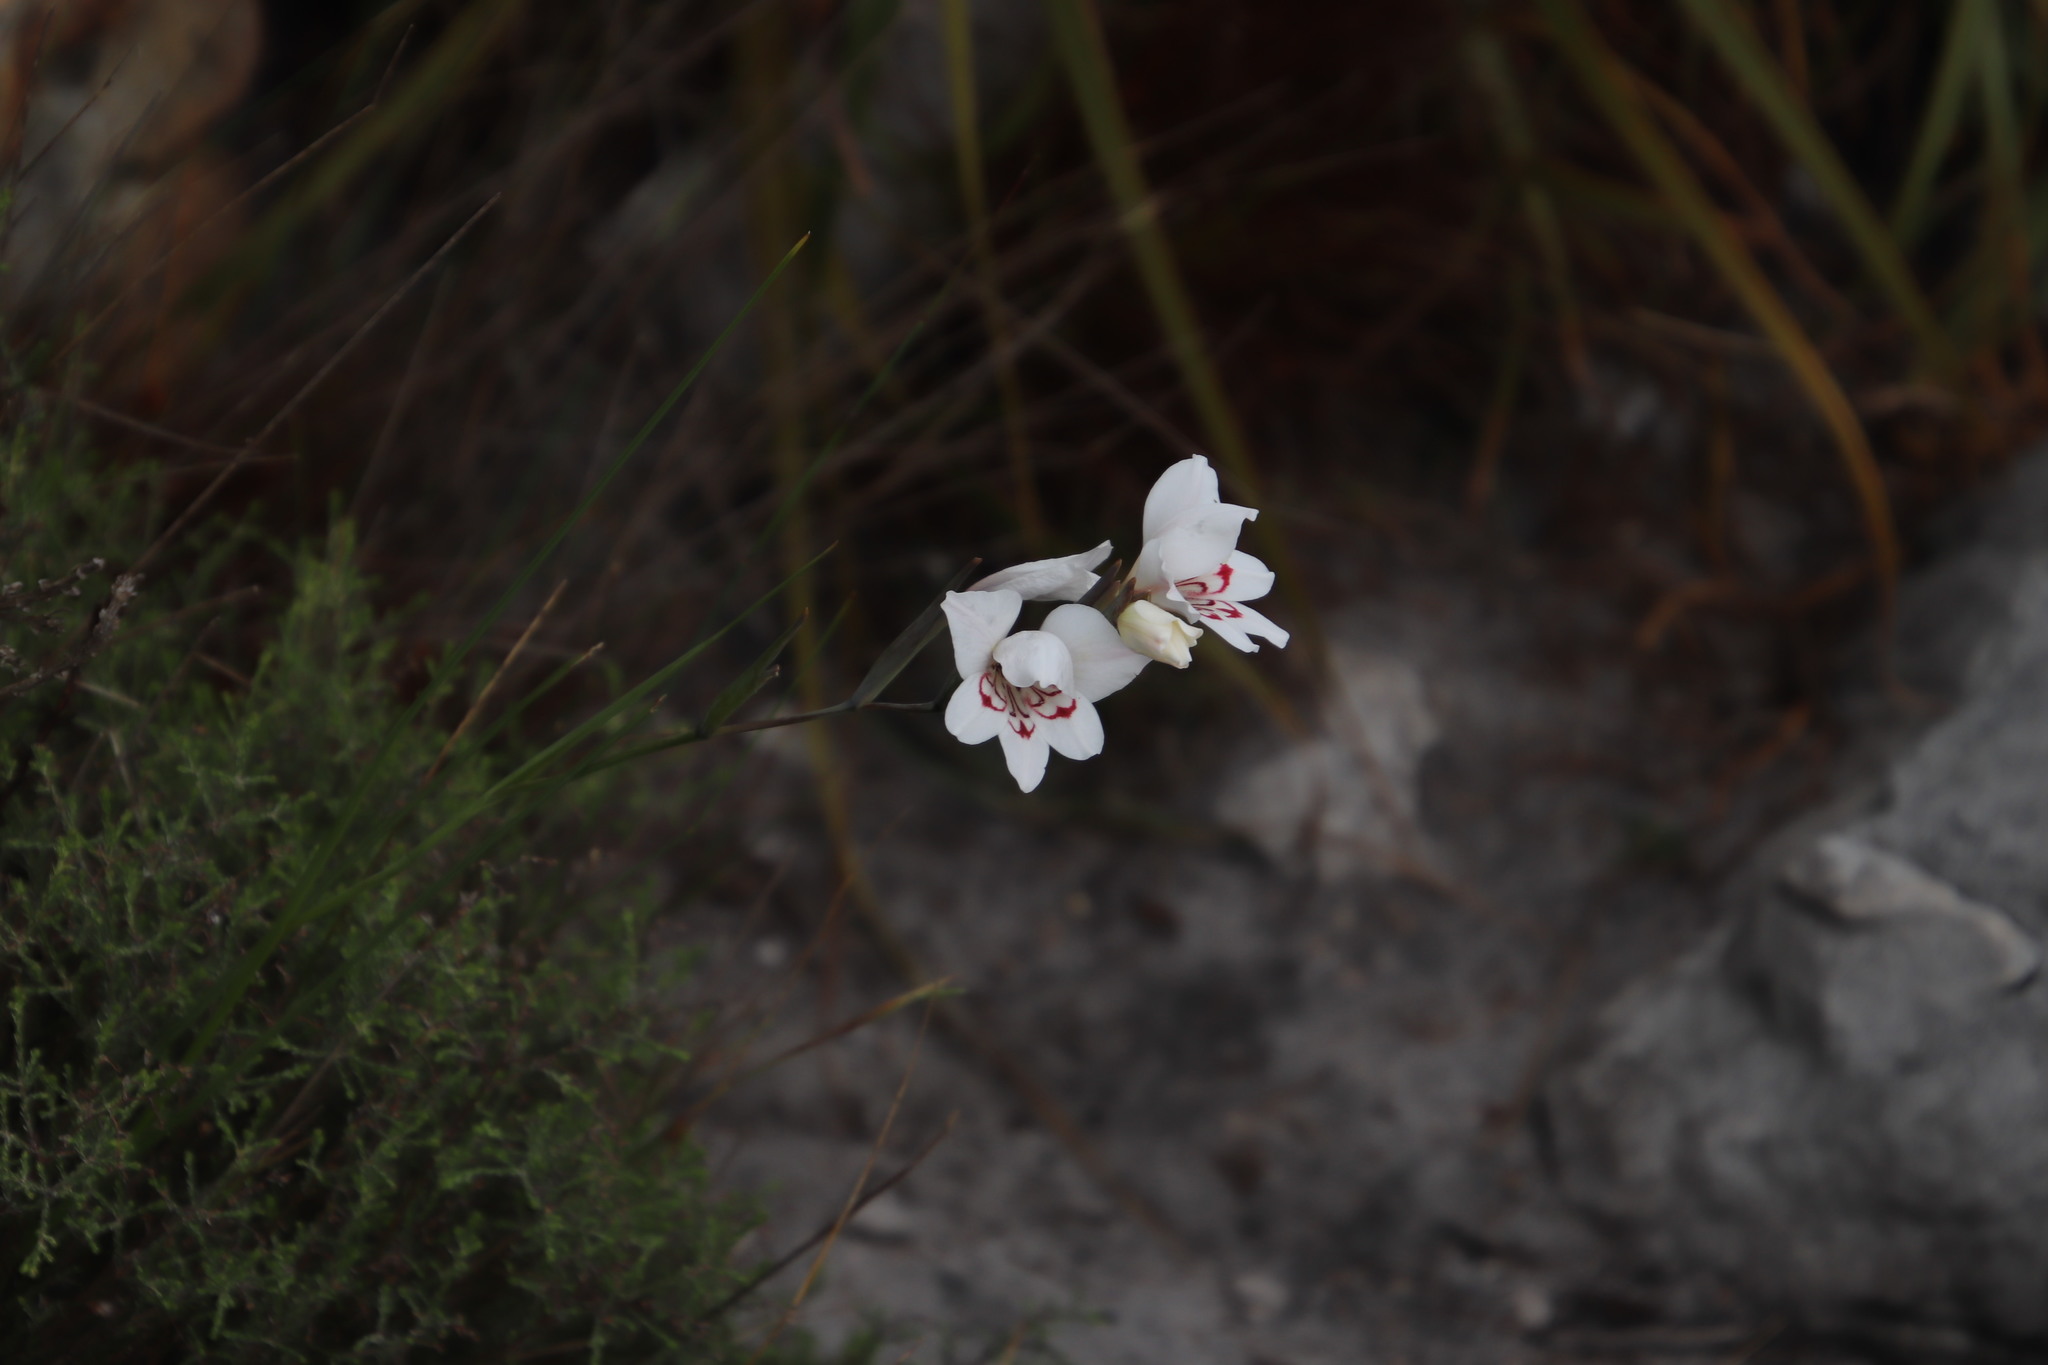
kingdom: Plantae
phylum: Tracheophyta
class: Liliopsida
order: Asparagales
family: Iridaceae
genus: Gladiolus
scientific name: Gladiolus debilis
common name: Painted-lady
